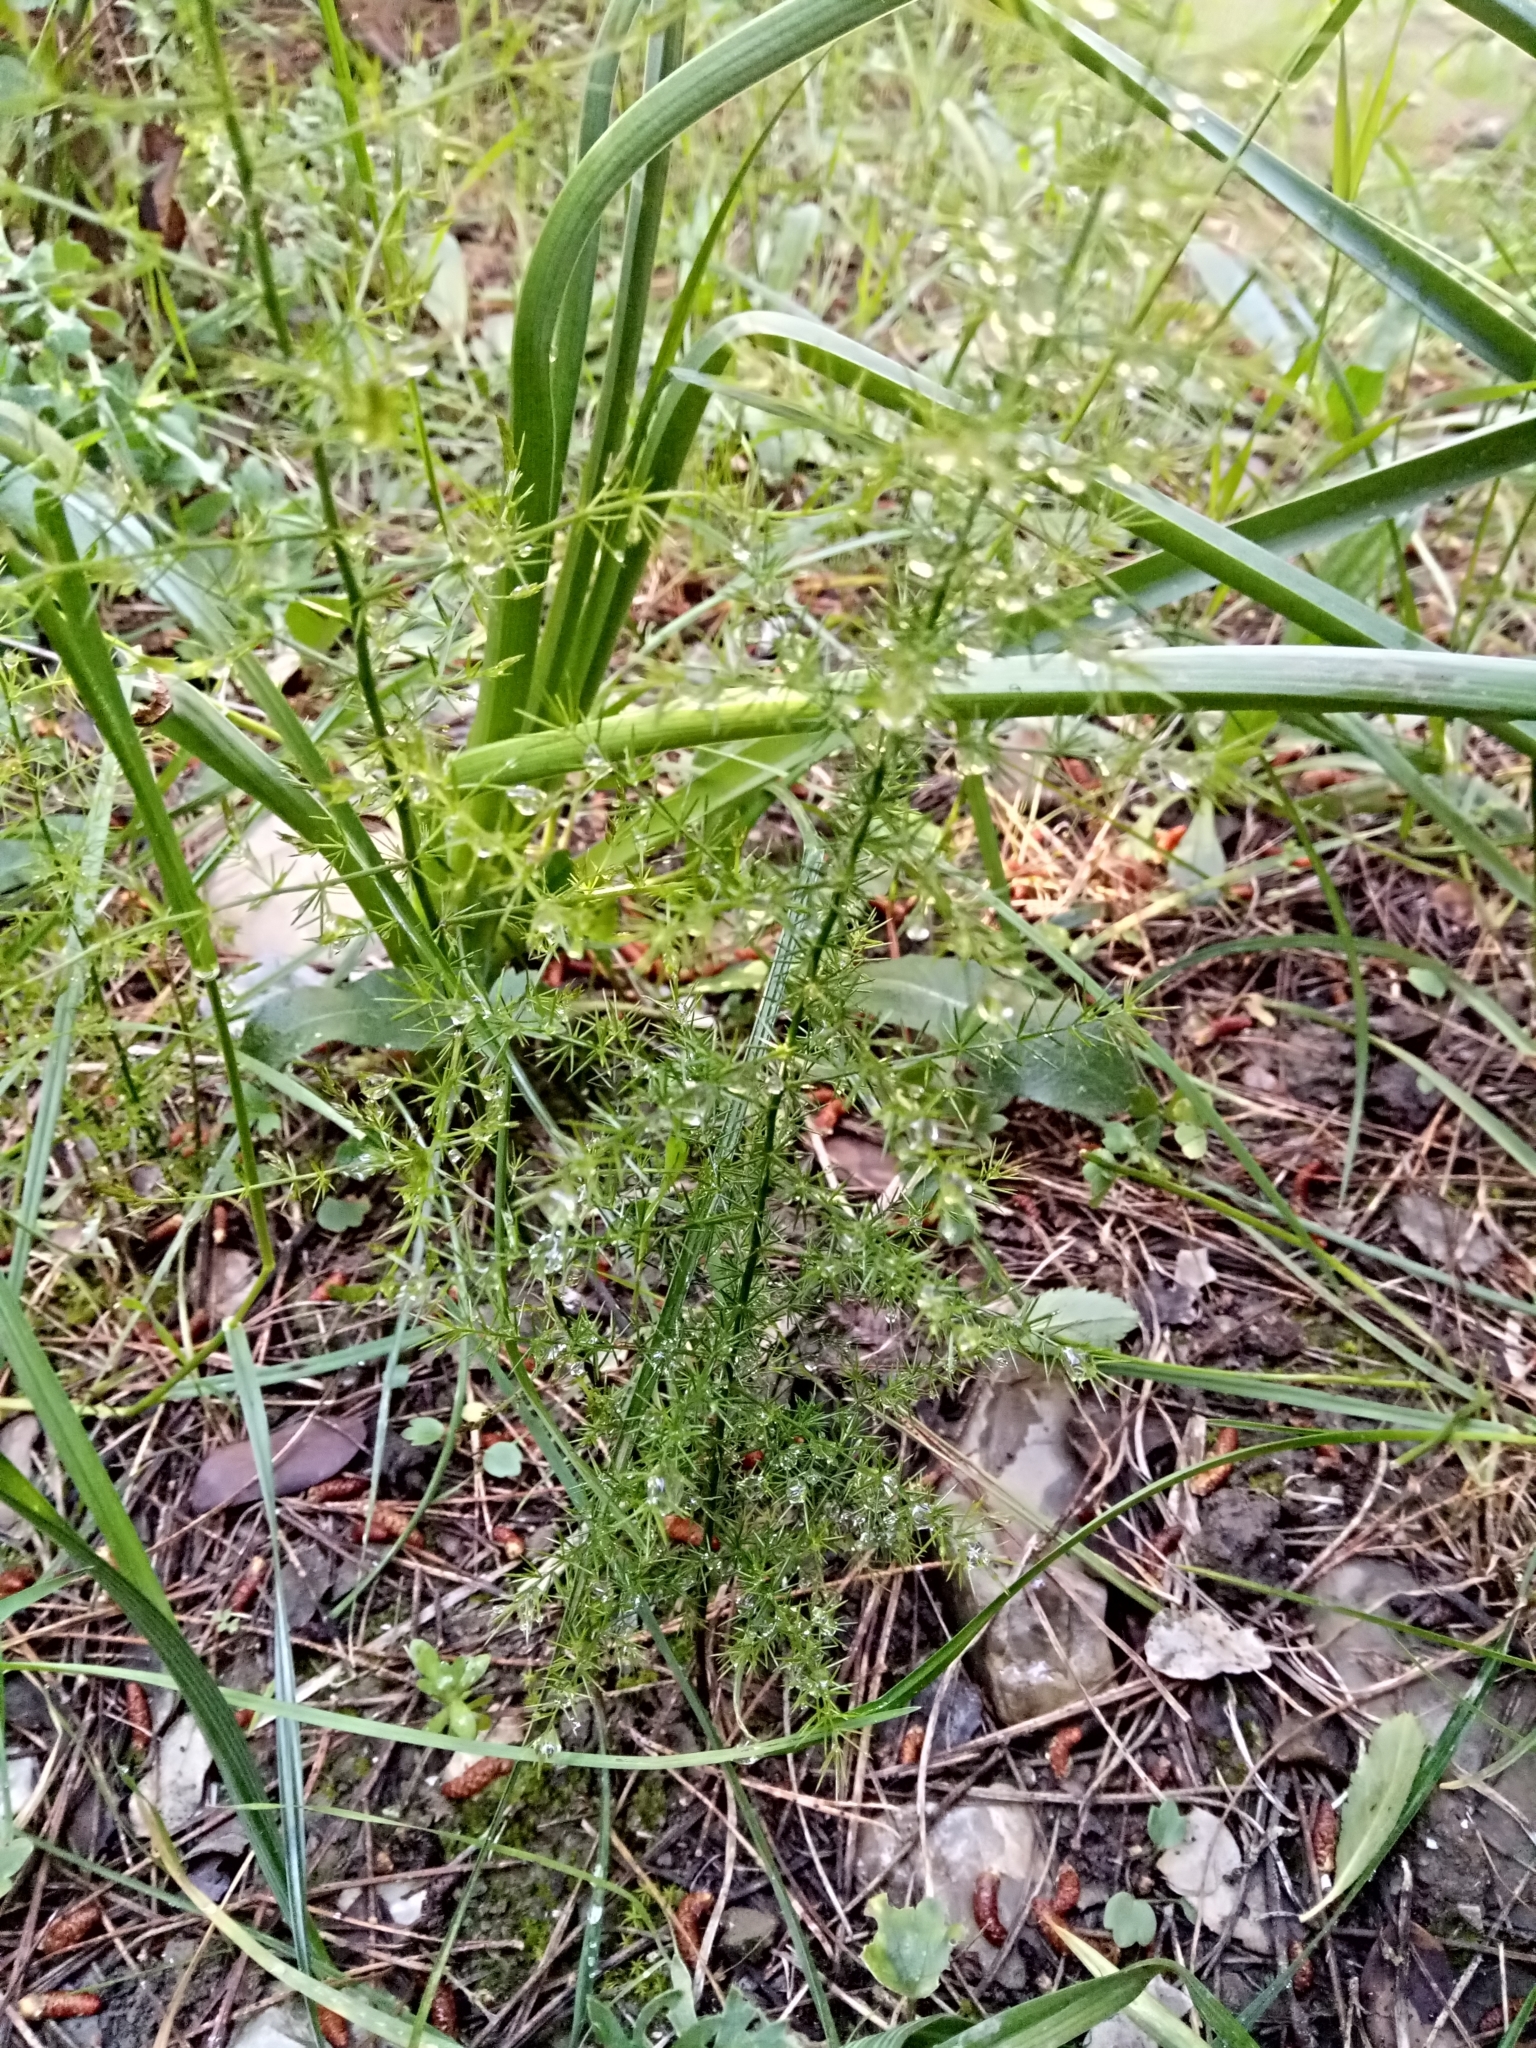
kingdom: Plantae
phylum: Tracheophyta
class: Liliopsida
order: Asparagales
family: Asparagaceae
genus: Asparagus
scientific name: Asparagus acutifolius
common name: Wild asparagus
